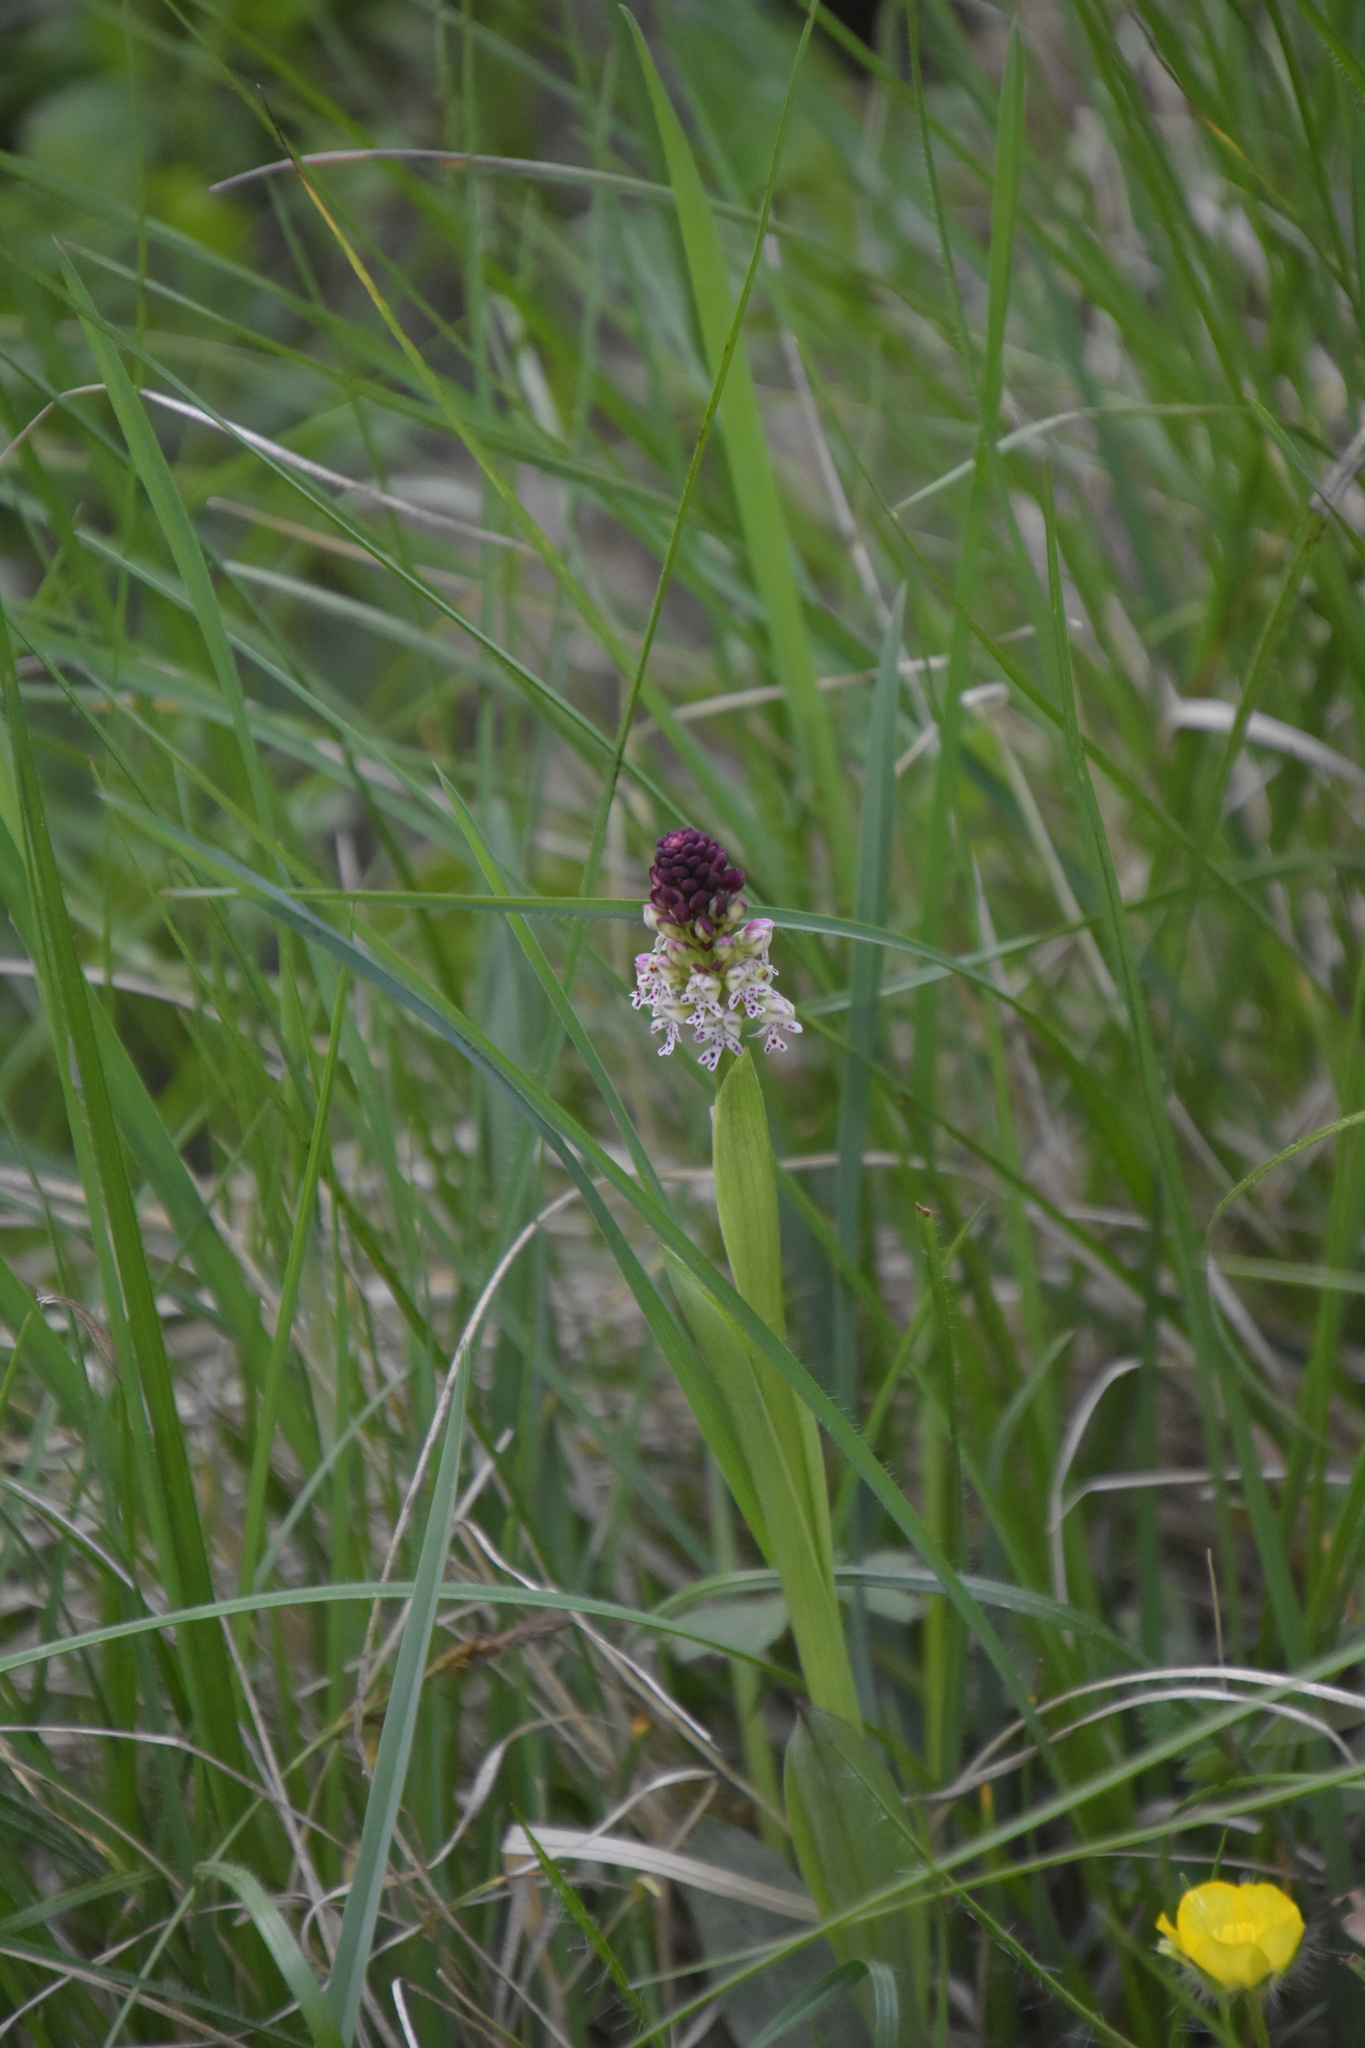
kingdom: Plantae
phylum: Tracheophyta
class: Liliopsida
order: Asparagales
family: Orchidaceae
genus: Neotinea
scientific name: Neotinea ustulata
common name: Burnt orchid
